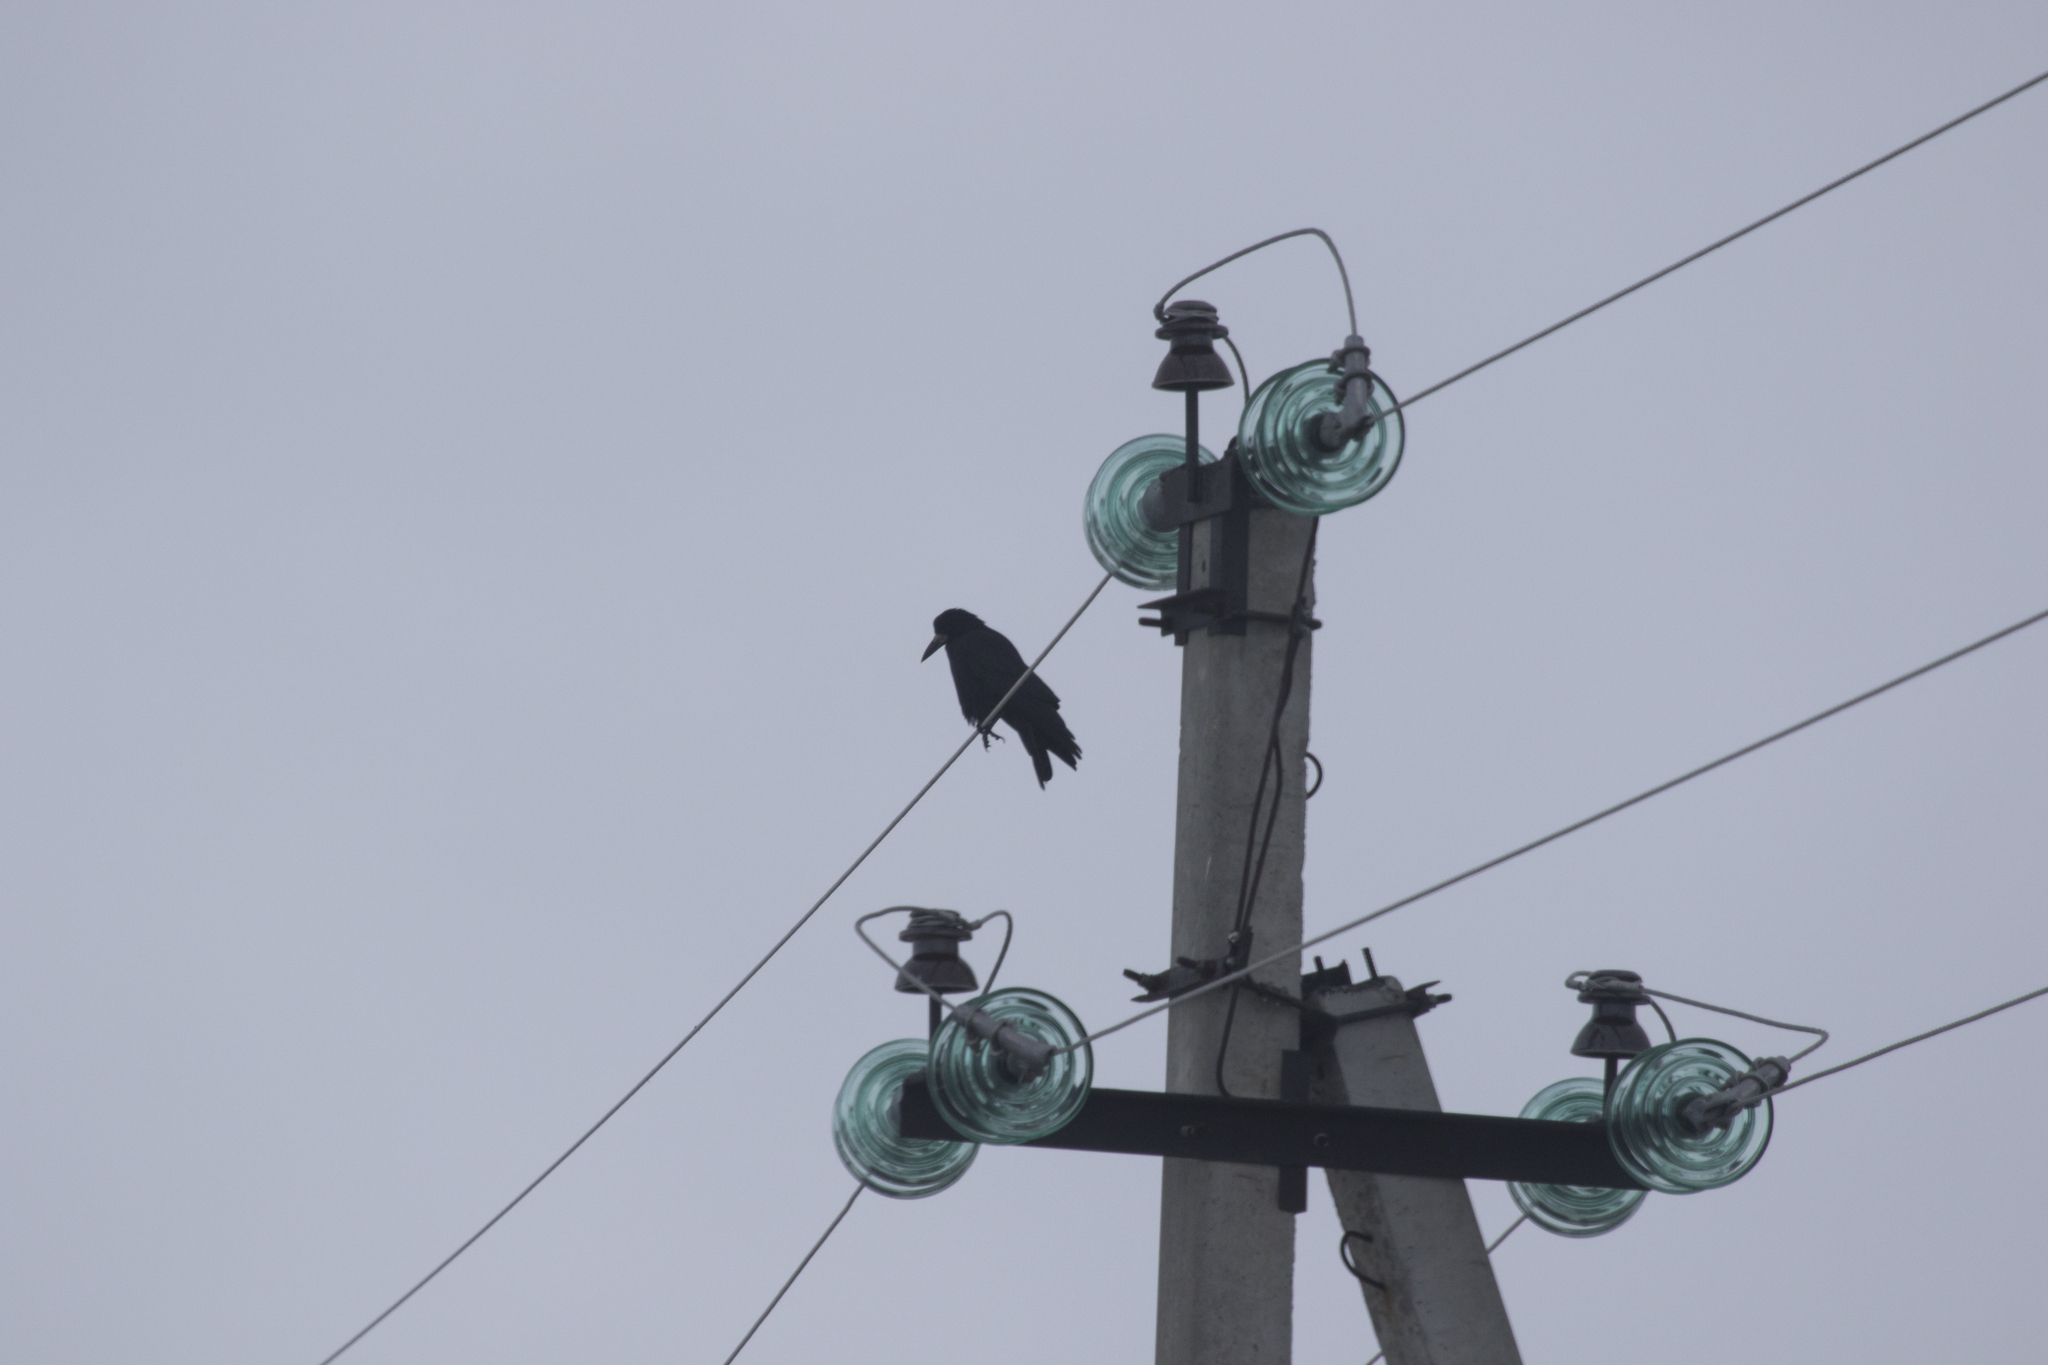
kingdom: Animalia
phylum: Chordata
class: Aves
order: Passeriformes
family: Corvidae
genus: Corvus
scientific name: Corvus frugilegus
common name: Rook
